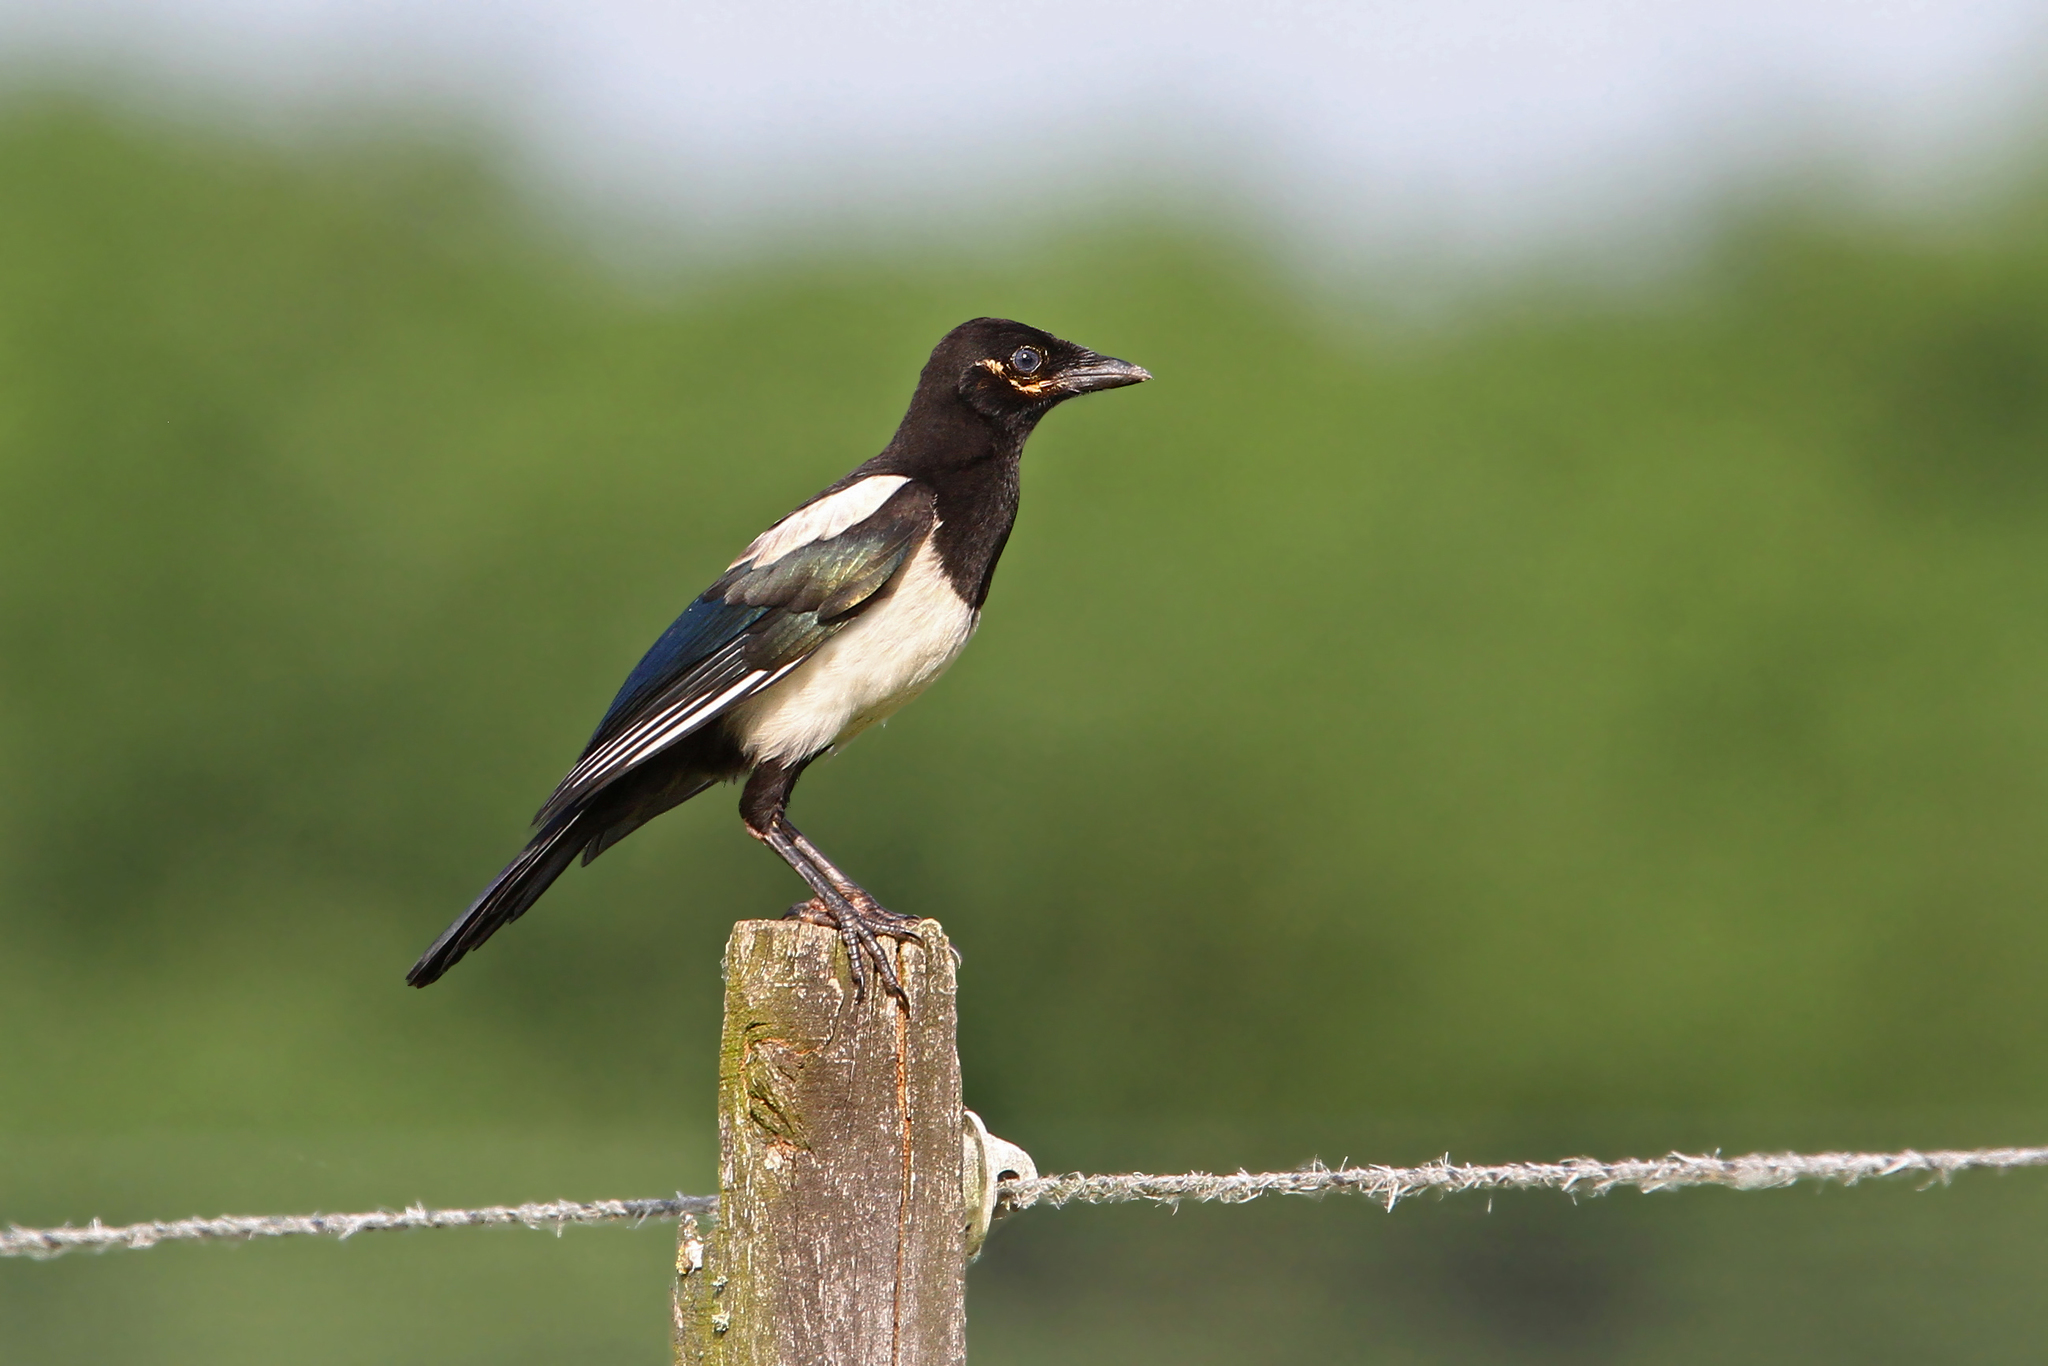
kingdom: Animalia
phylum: Chordata
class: Aves
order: Passeriformes
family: Corvidae
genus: Pica
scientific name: Pica pica
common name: Eurasian magpie
